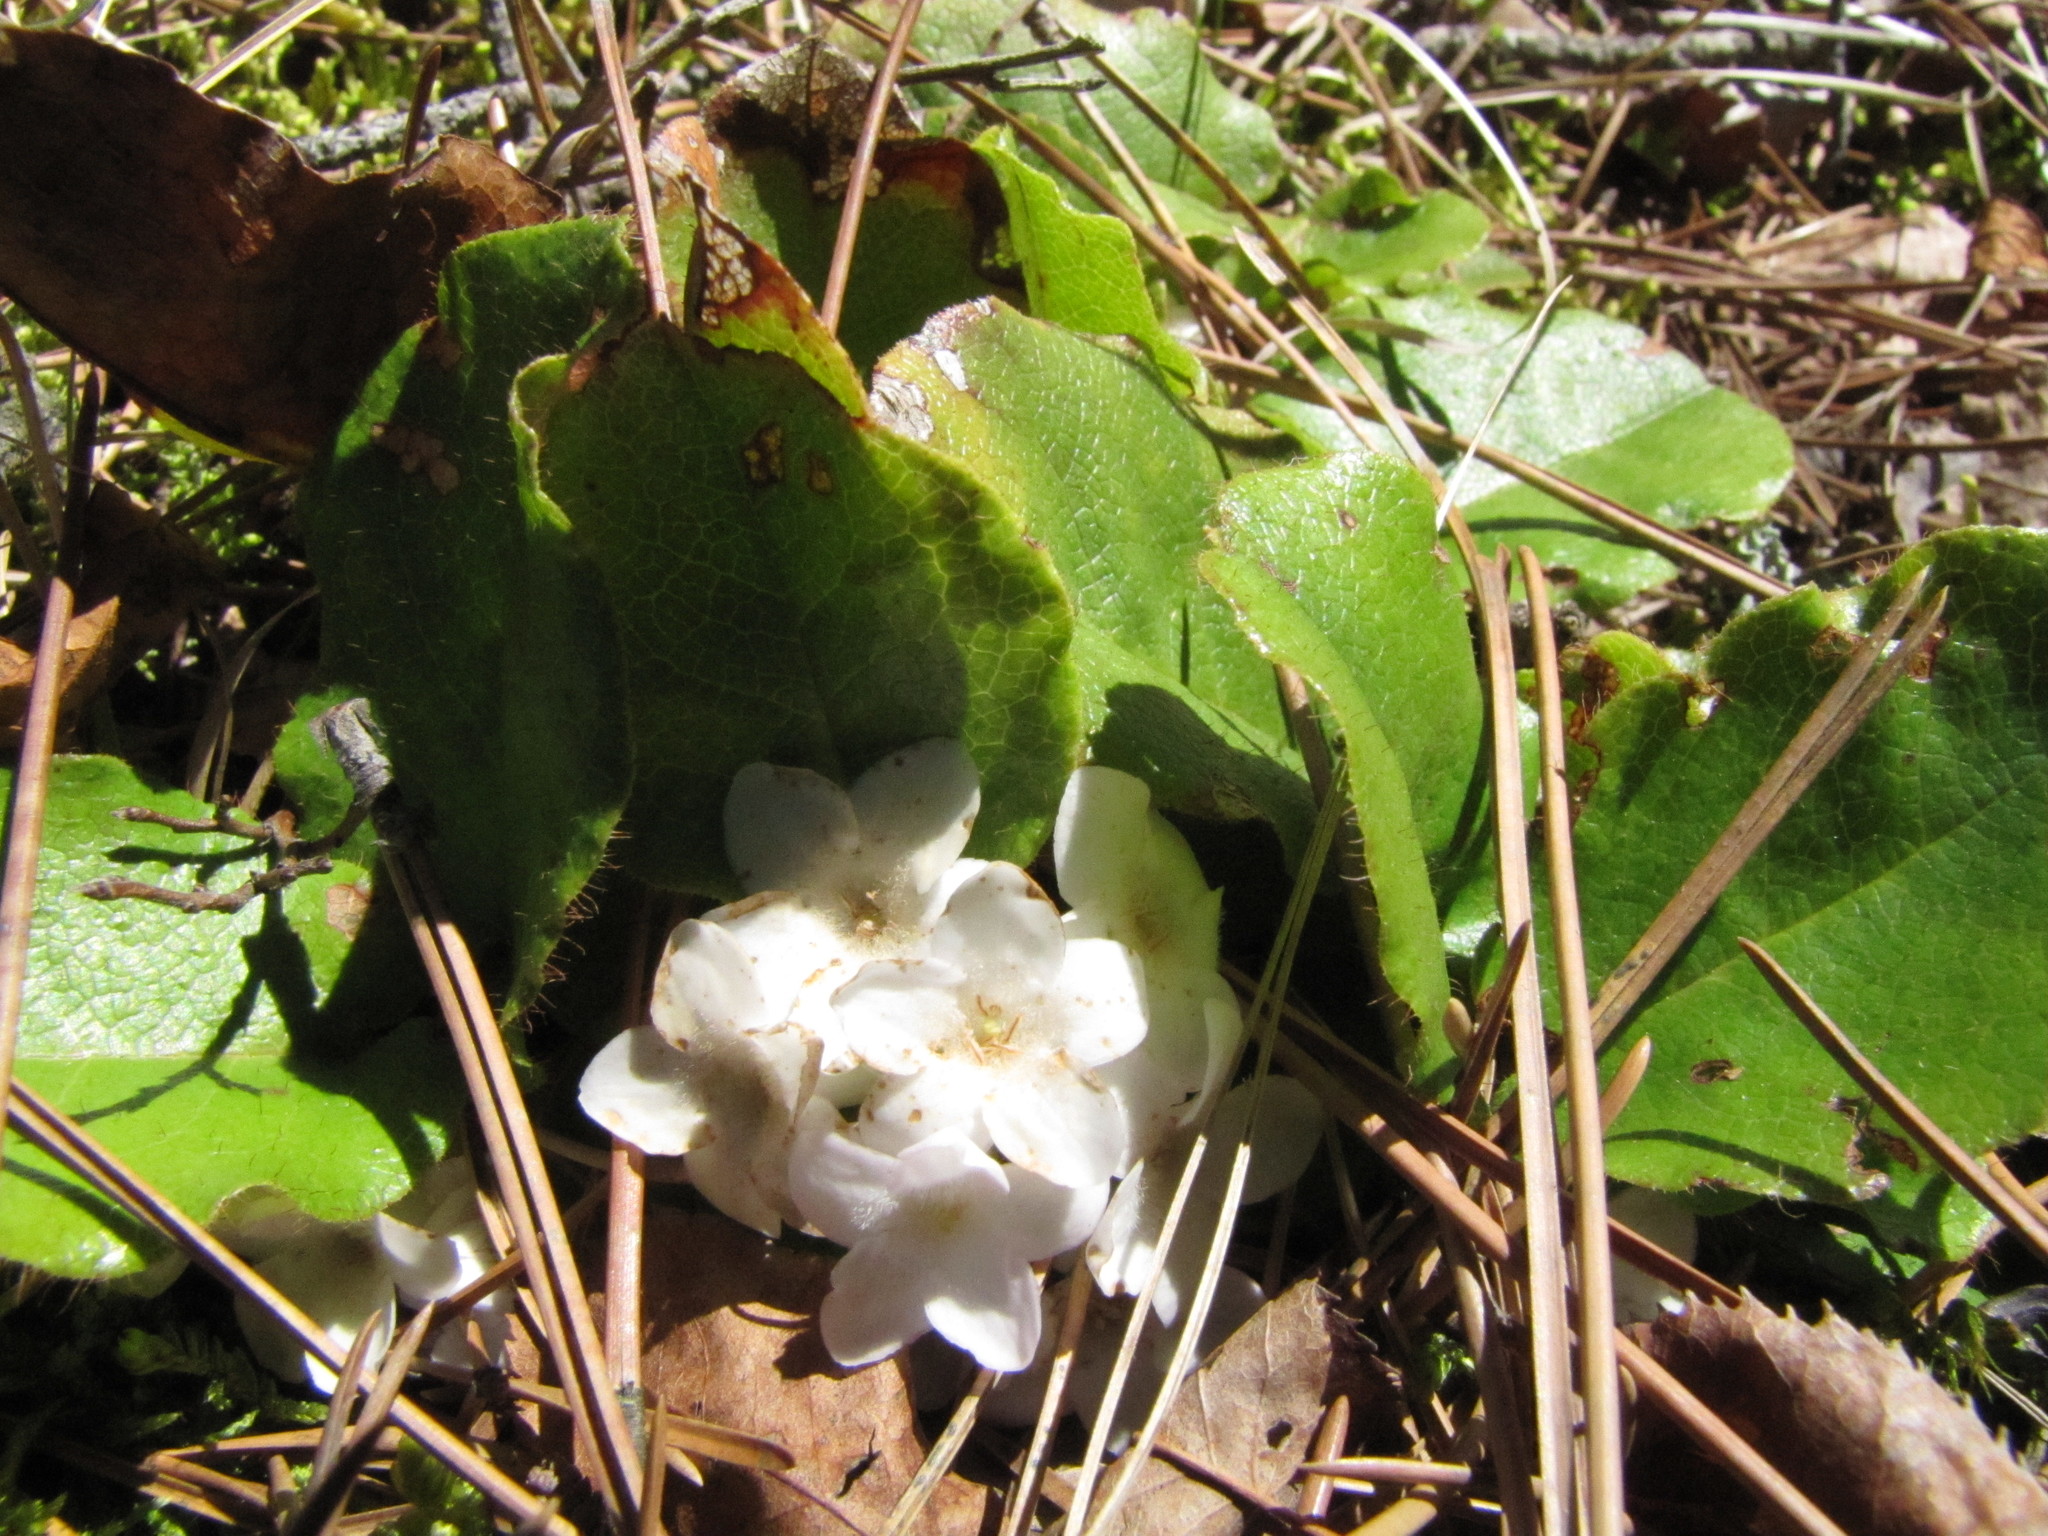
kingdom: Plantae
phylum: Tracheophyta
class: Magnoliopsida
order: Ericales
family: Ericaceae
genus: Epigaea
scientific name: Epigaea repens
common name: Gravelroot
